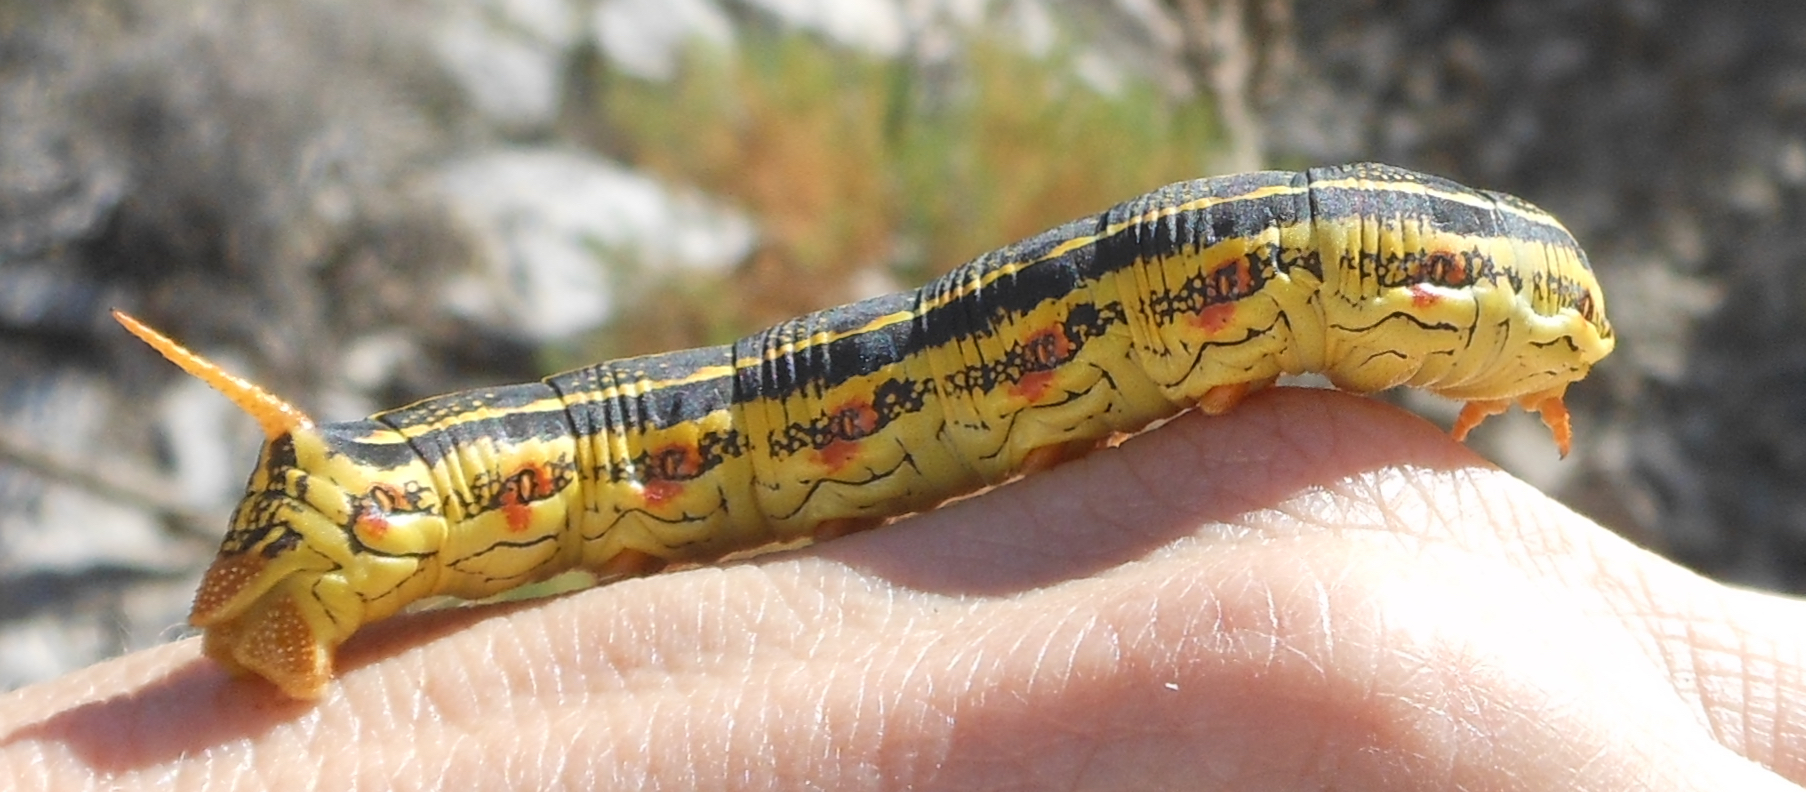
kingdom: Animalia
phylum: Arthropoda
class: Insecta
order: Lepidoptera
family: Sphingidae
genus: Hyles
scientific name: Hyles lineata
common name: White-lined sphinx
